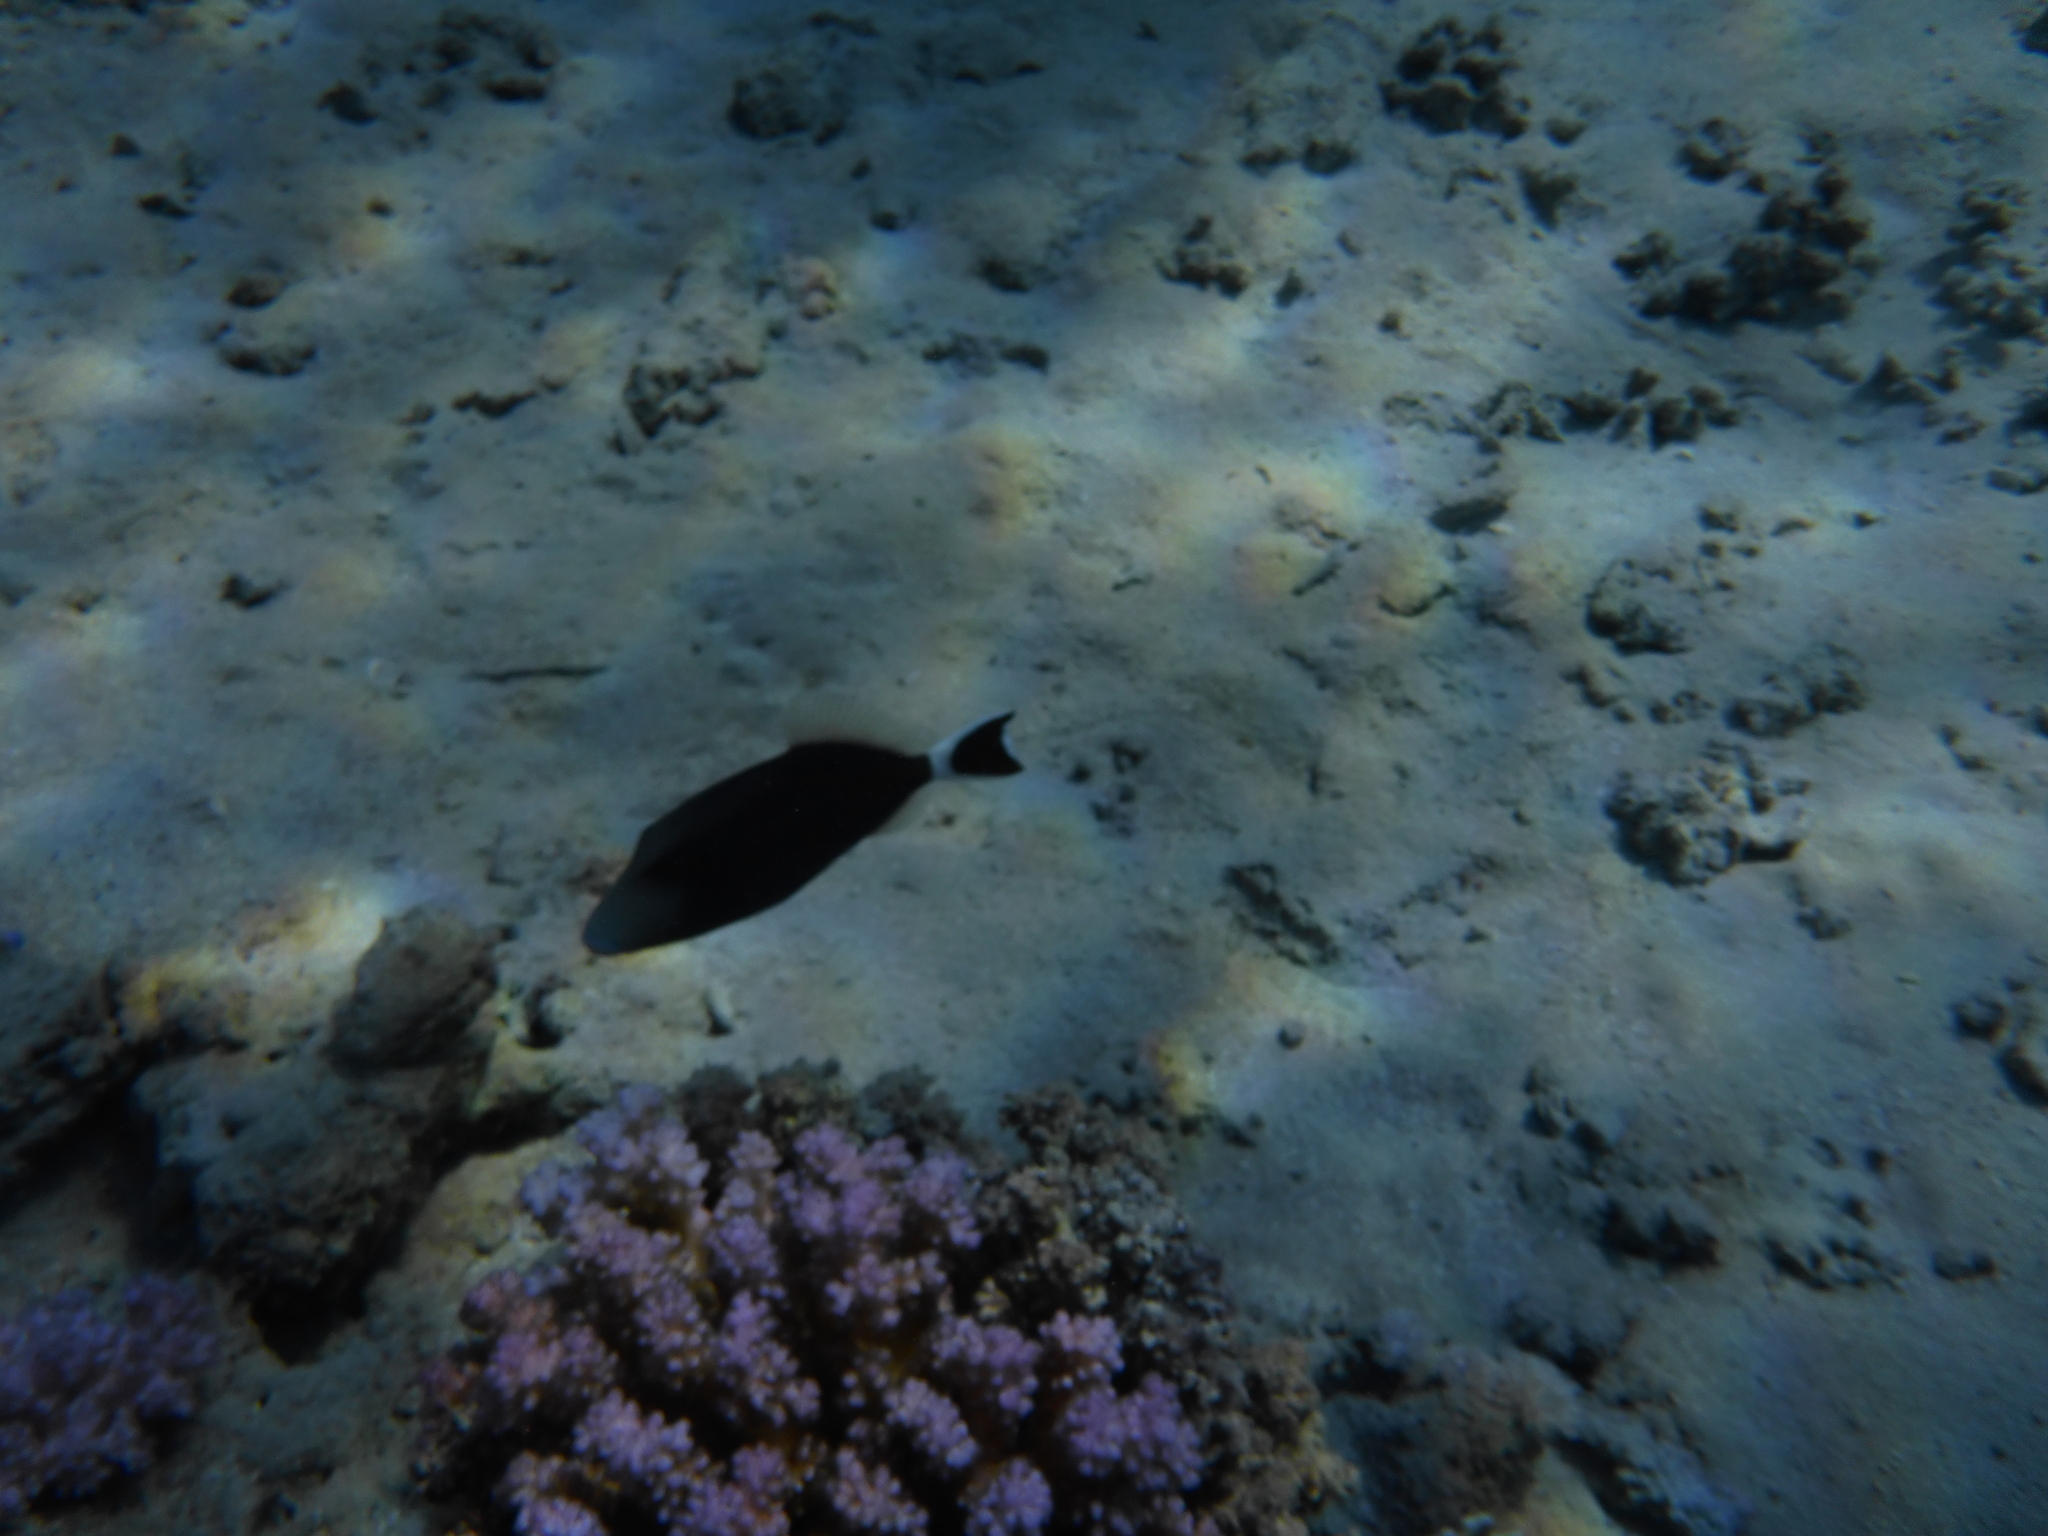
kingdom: Animalia
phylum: Chordata
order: Tetraodontiformes
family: Balistidae
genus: Sufflamen
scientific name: Sufflamen albicaudatum
